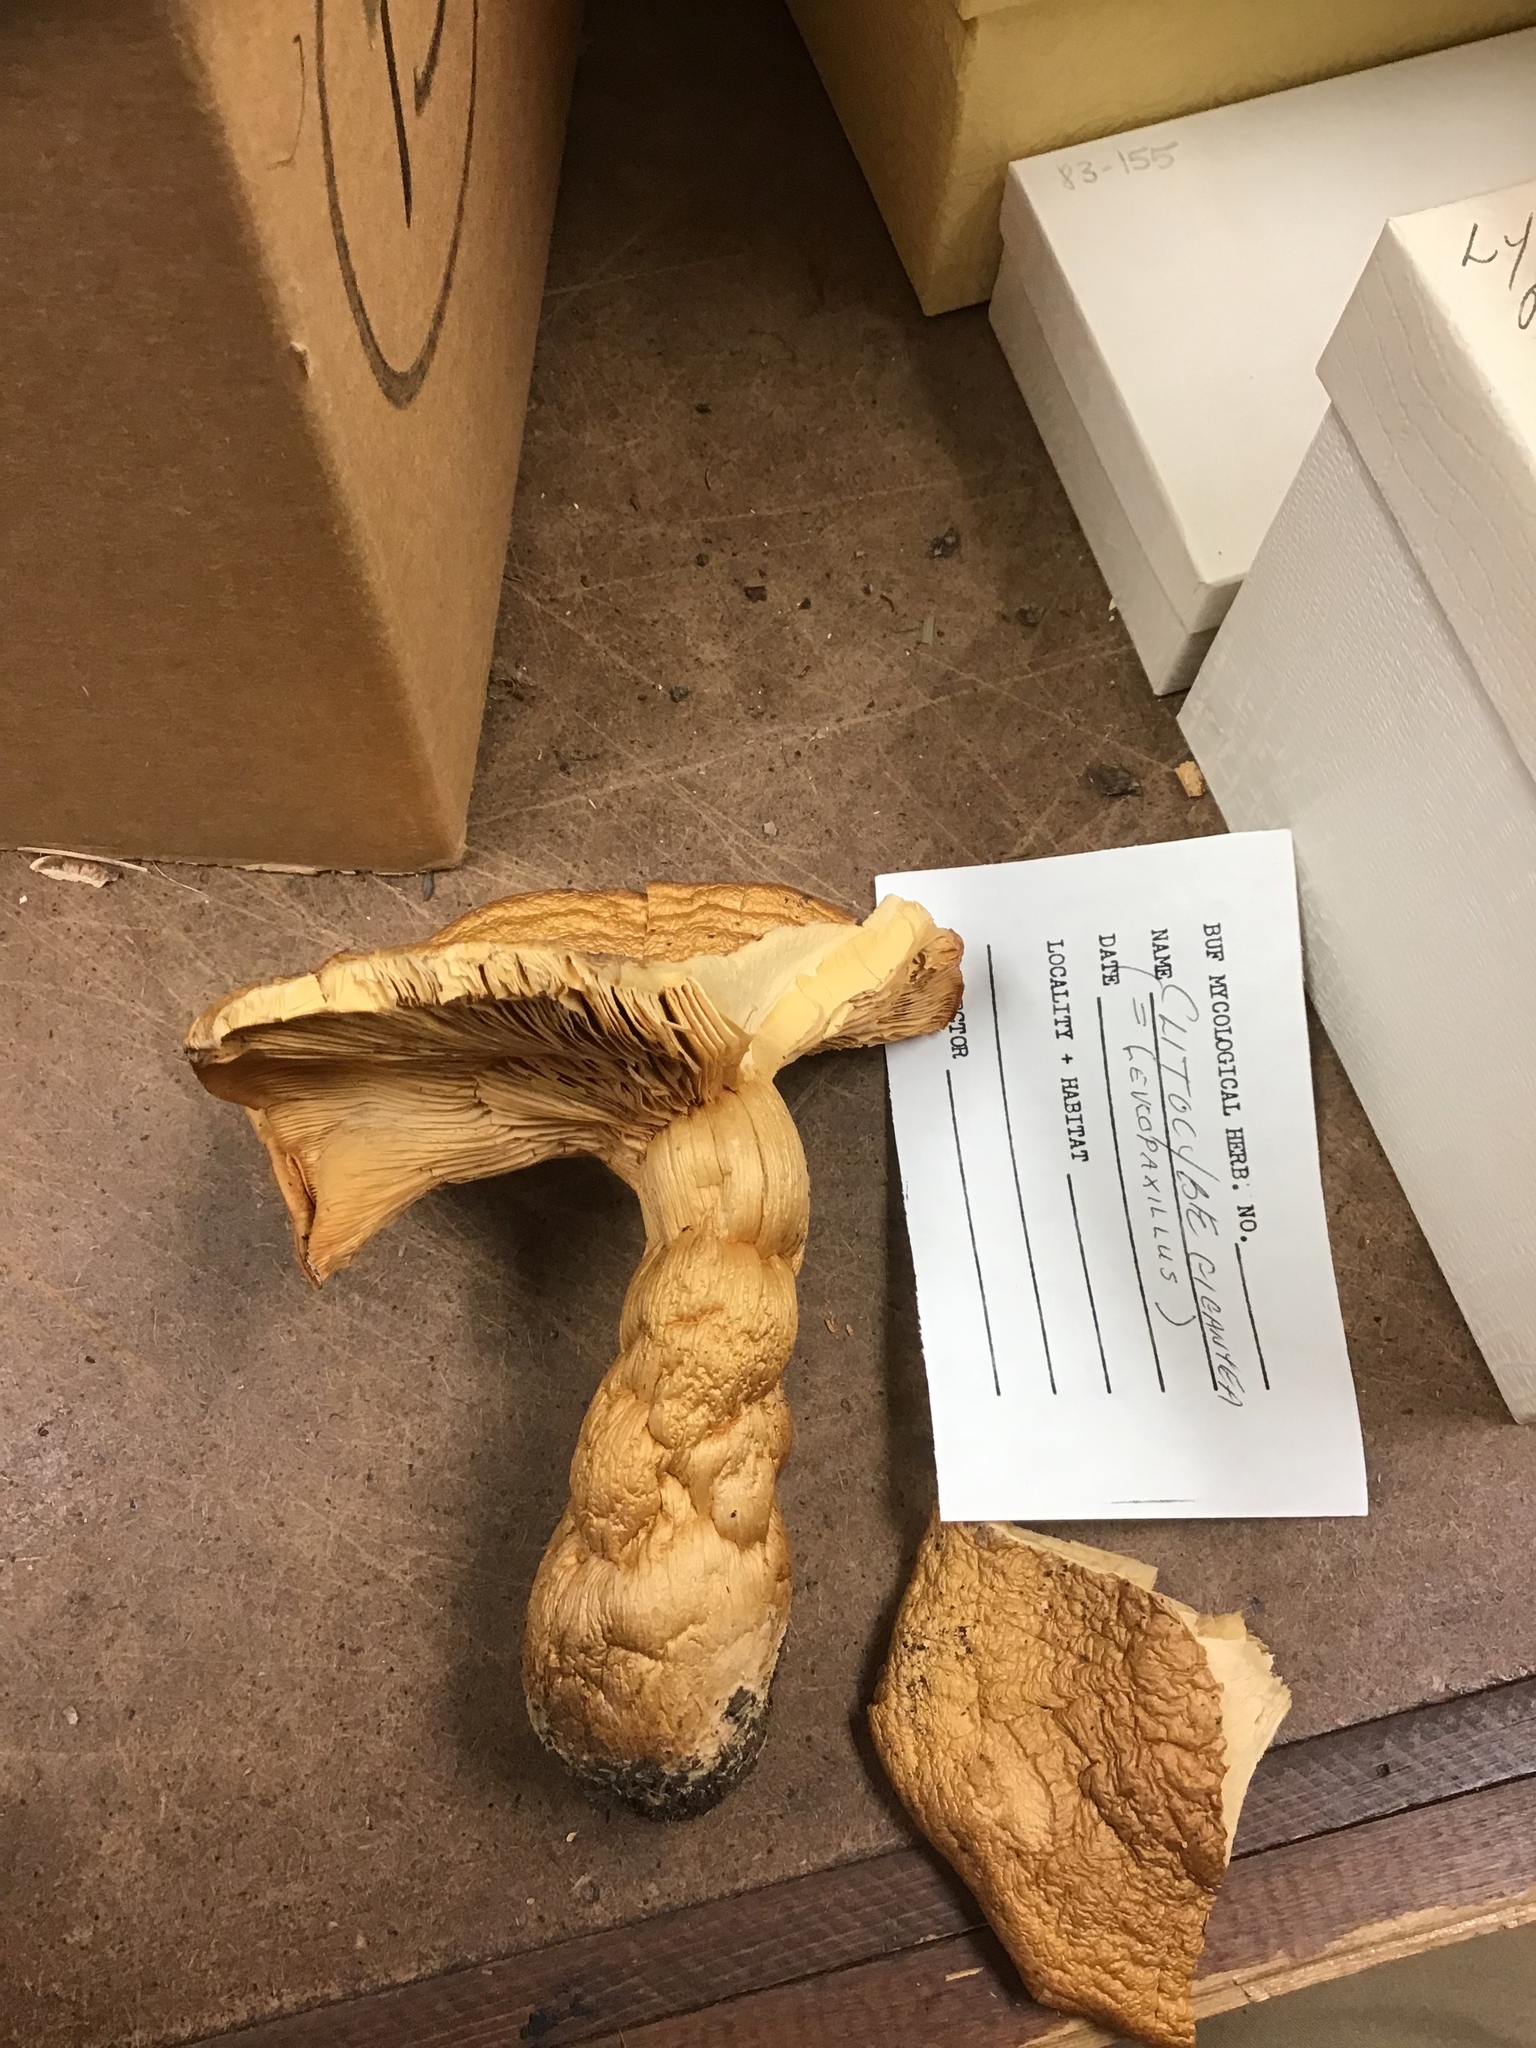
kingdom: Fungi
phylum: Basidiomycota
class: Agaricomycetes
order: Agaricales
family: Tricholomataceae
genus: Aspropaxillus
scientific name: Aspropaxillus giganteus
